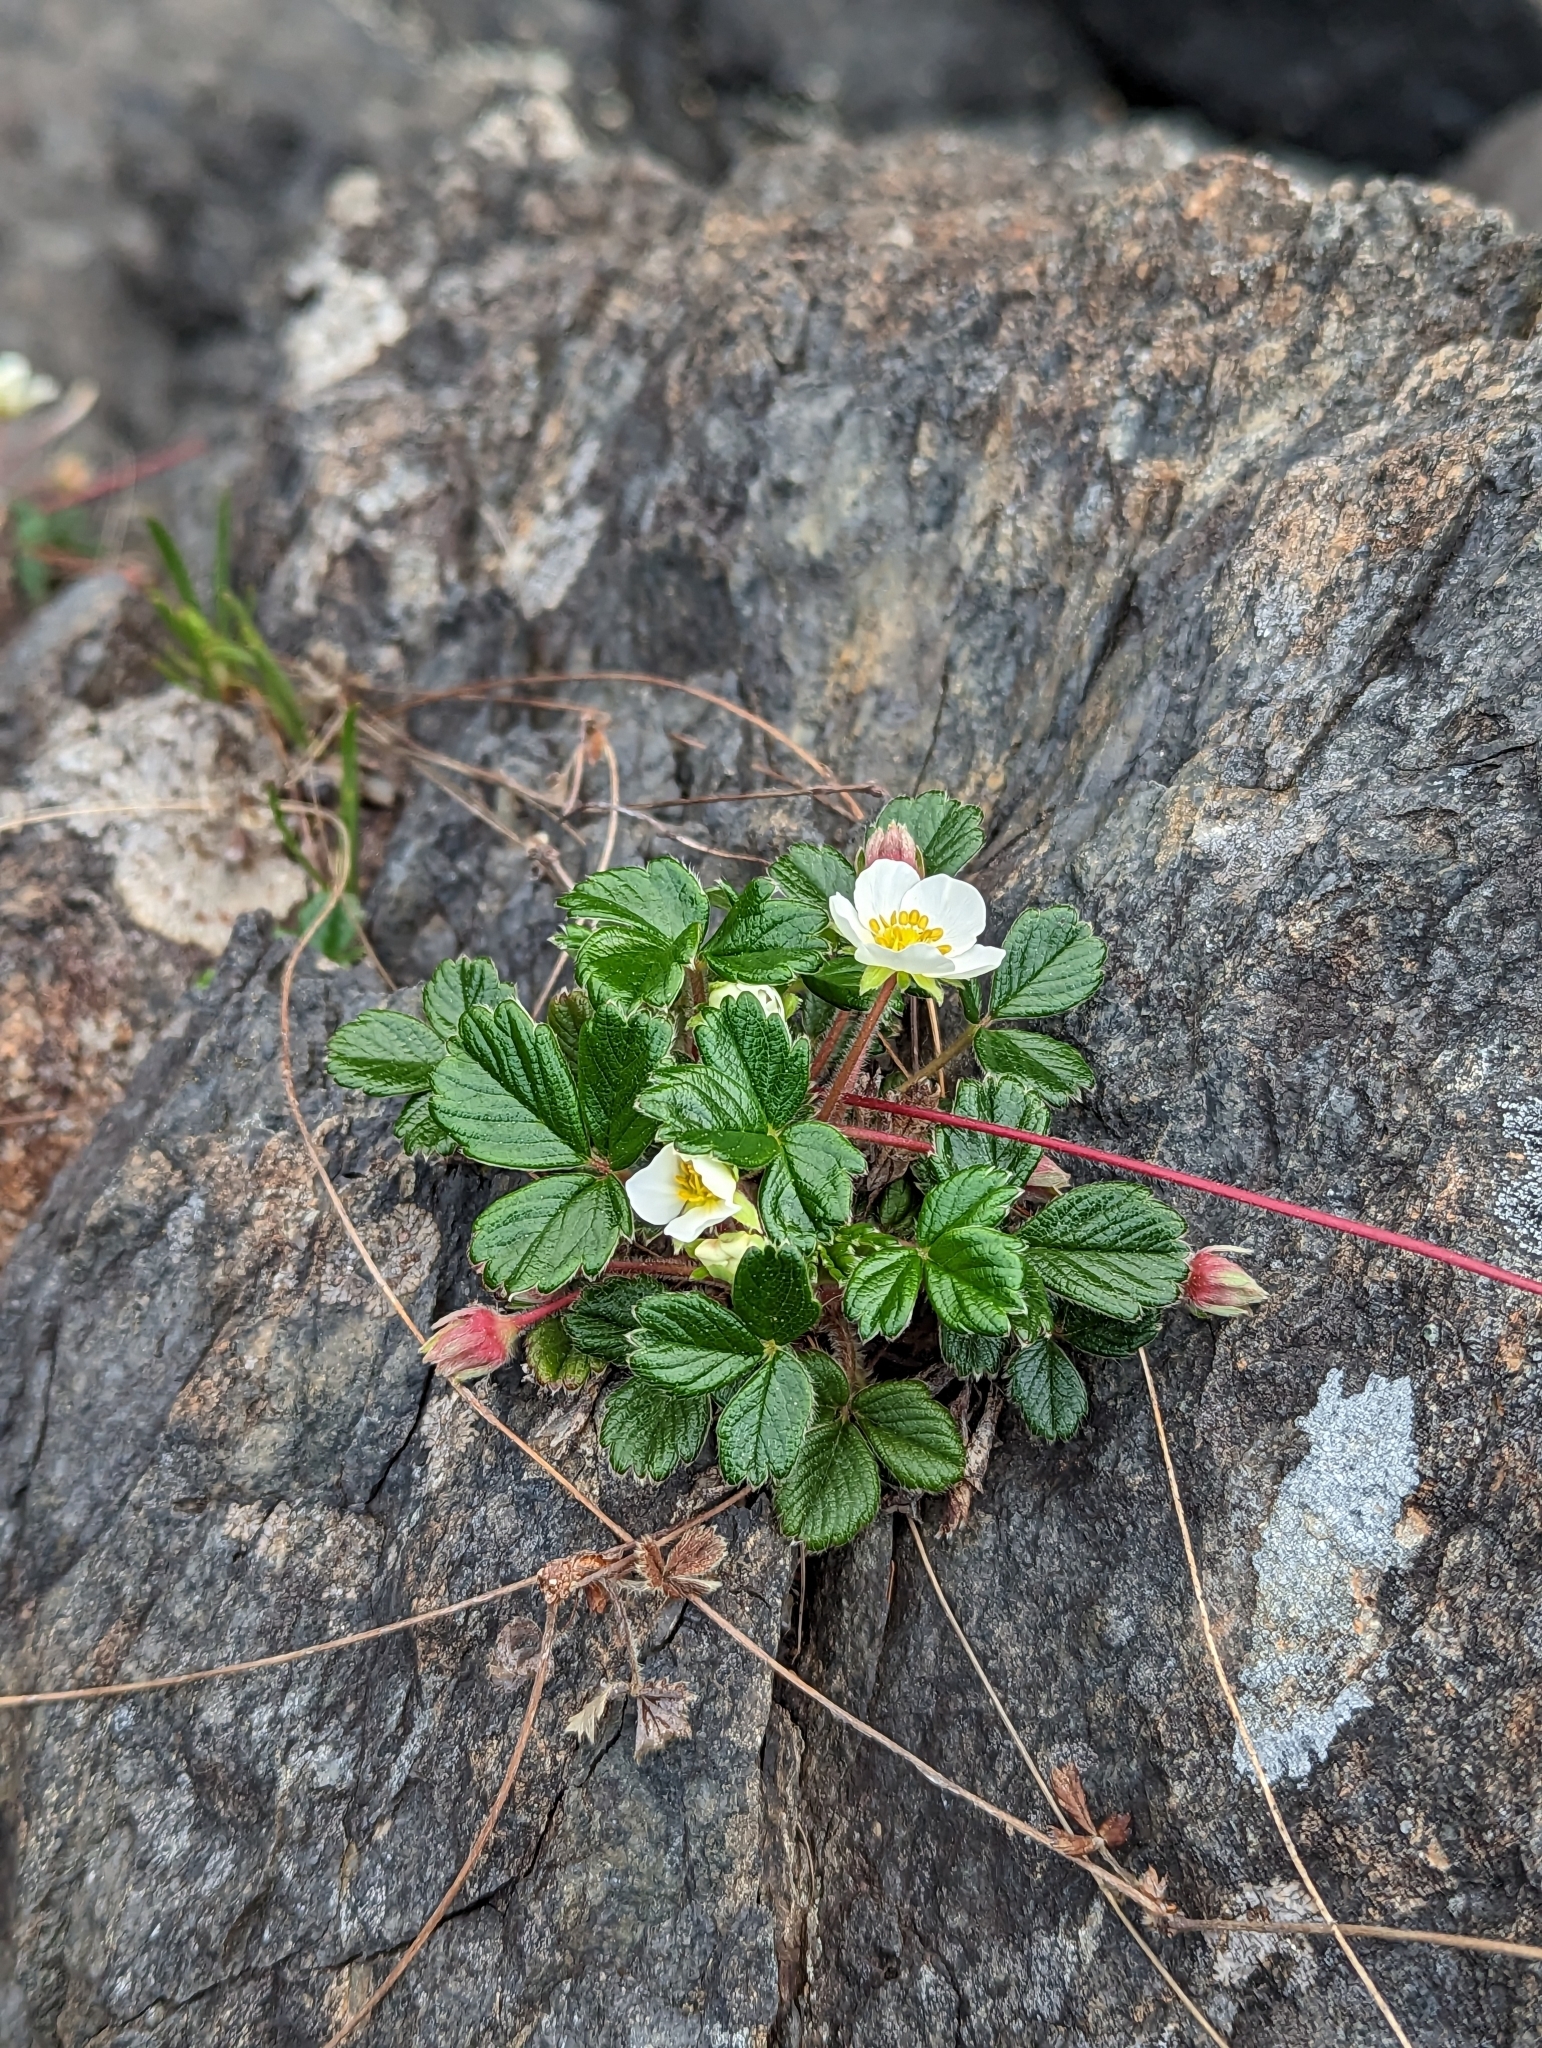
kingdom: Plantae
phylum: Tracheophyta
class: Magnoliopsida
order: Rosales
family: Rosaceae
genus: Fragaria
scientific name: Fragaria chiloensis
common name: Beach strawberry
